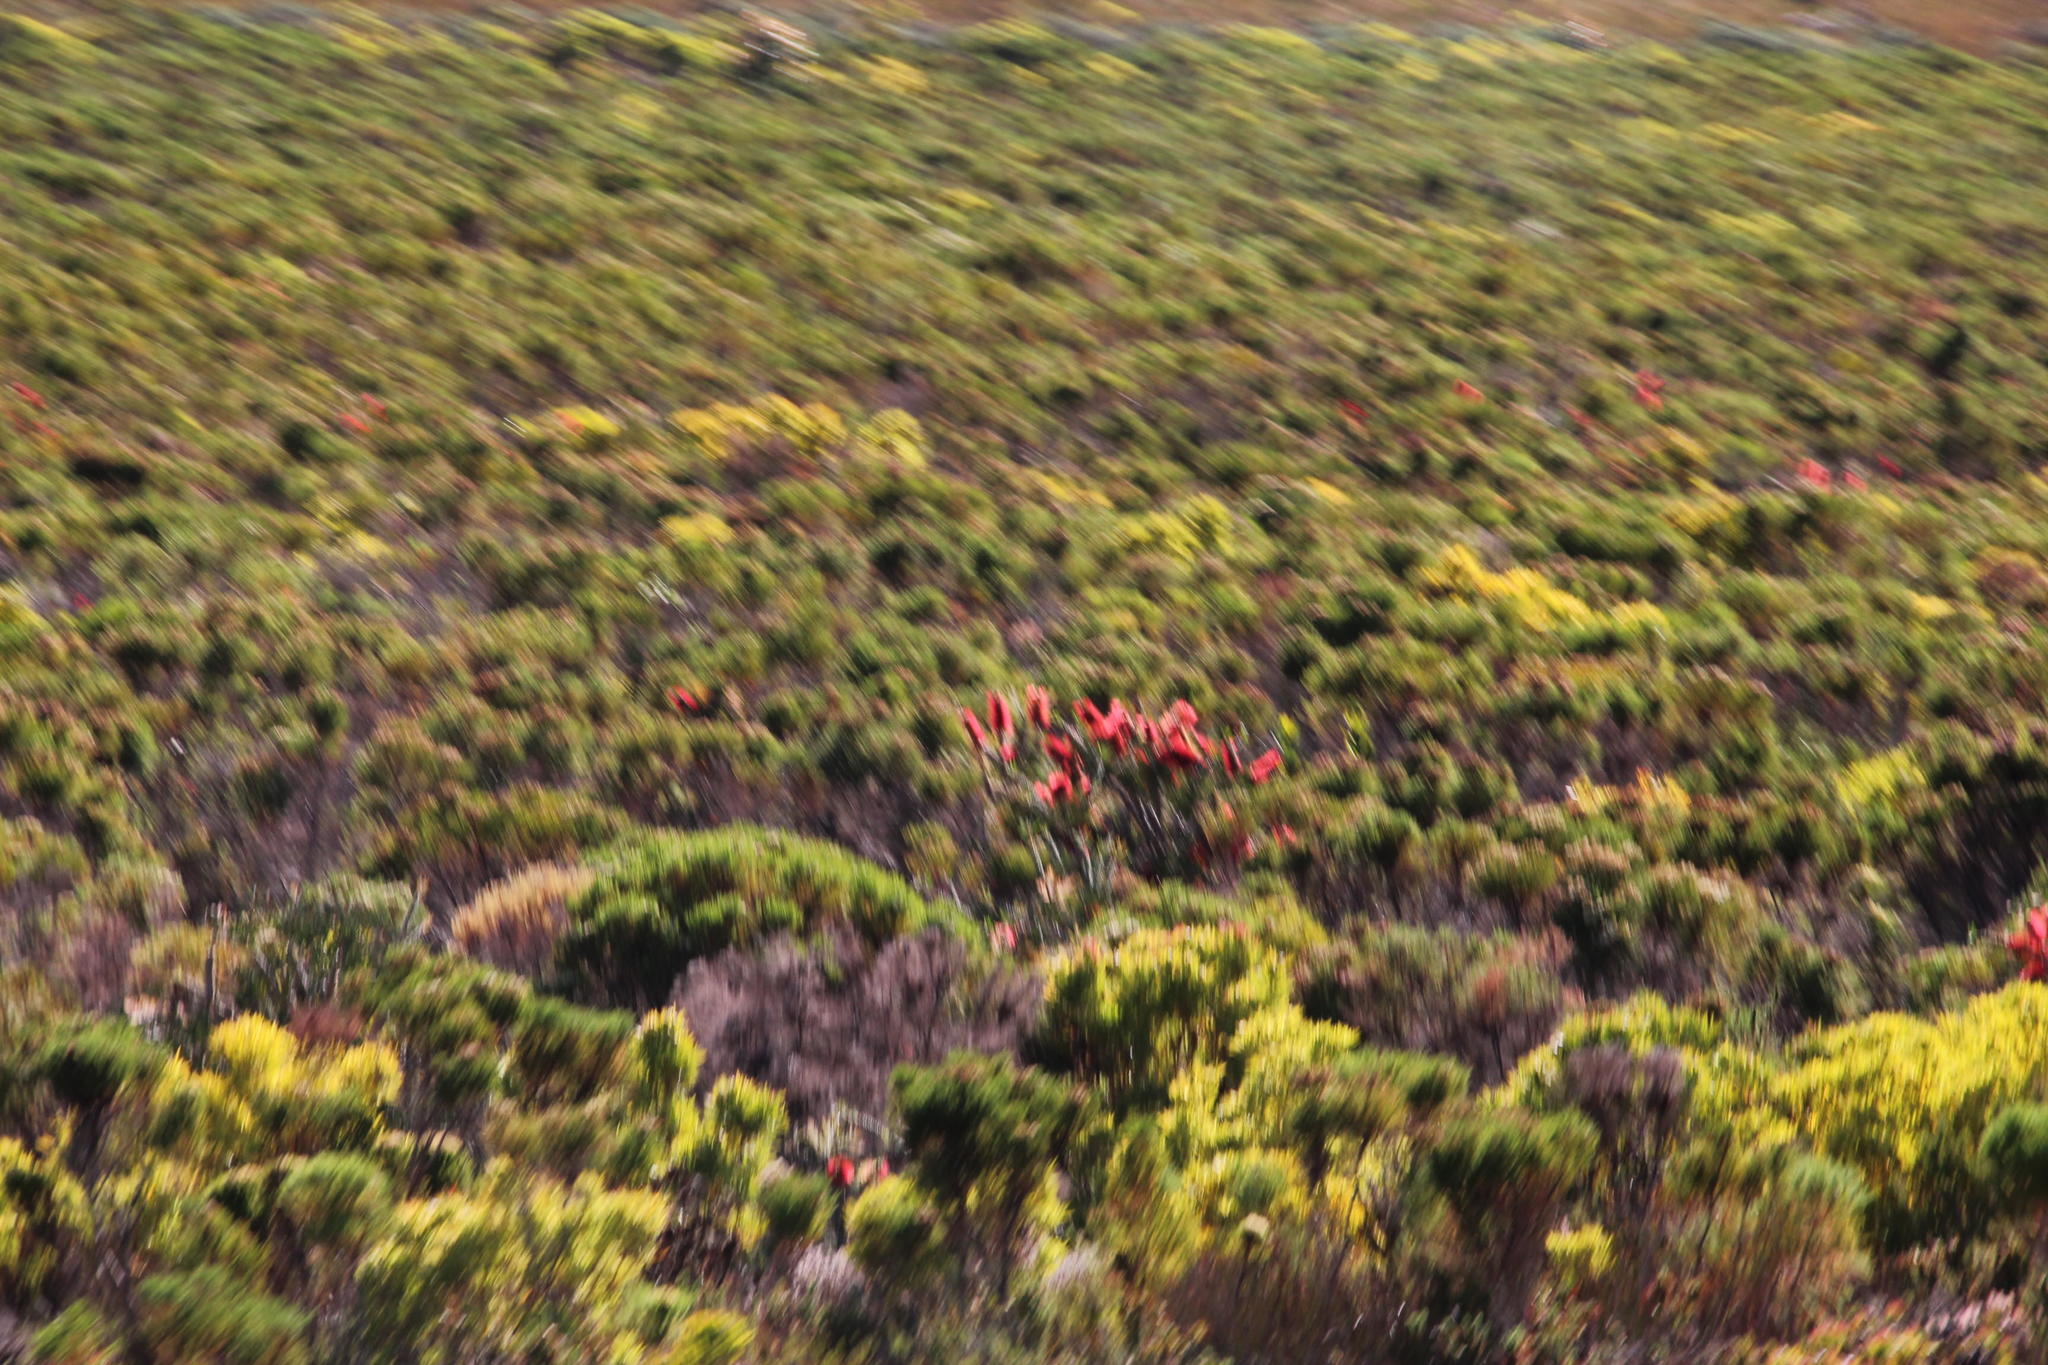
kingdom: Plantae
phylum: Tracheophyta
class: Magnoliopsida
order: Myrtales
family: Myrtaceae
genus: Callistemon
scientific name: Callistemon linearis
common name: Narrow-leaf bottlebrush
